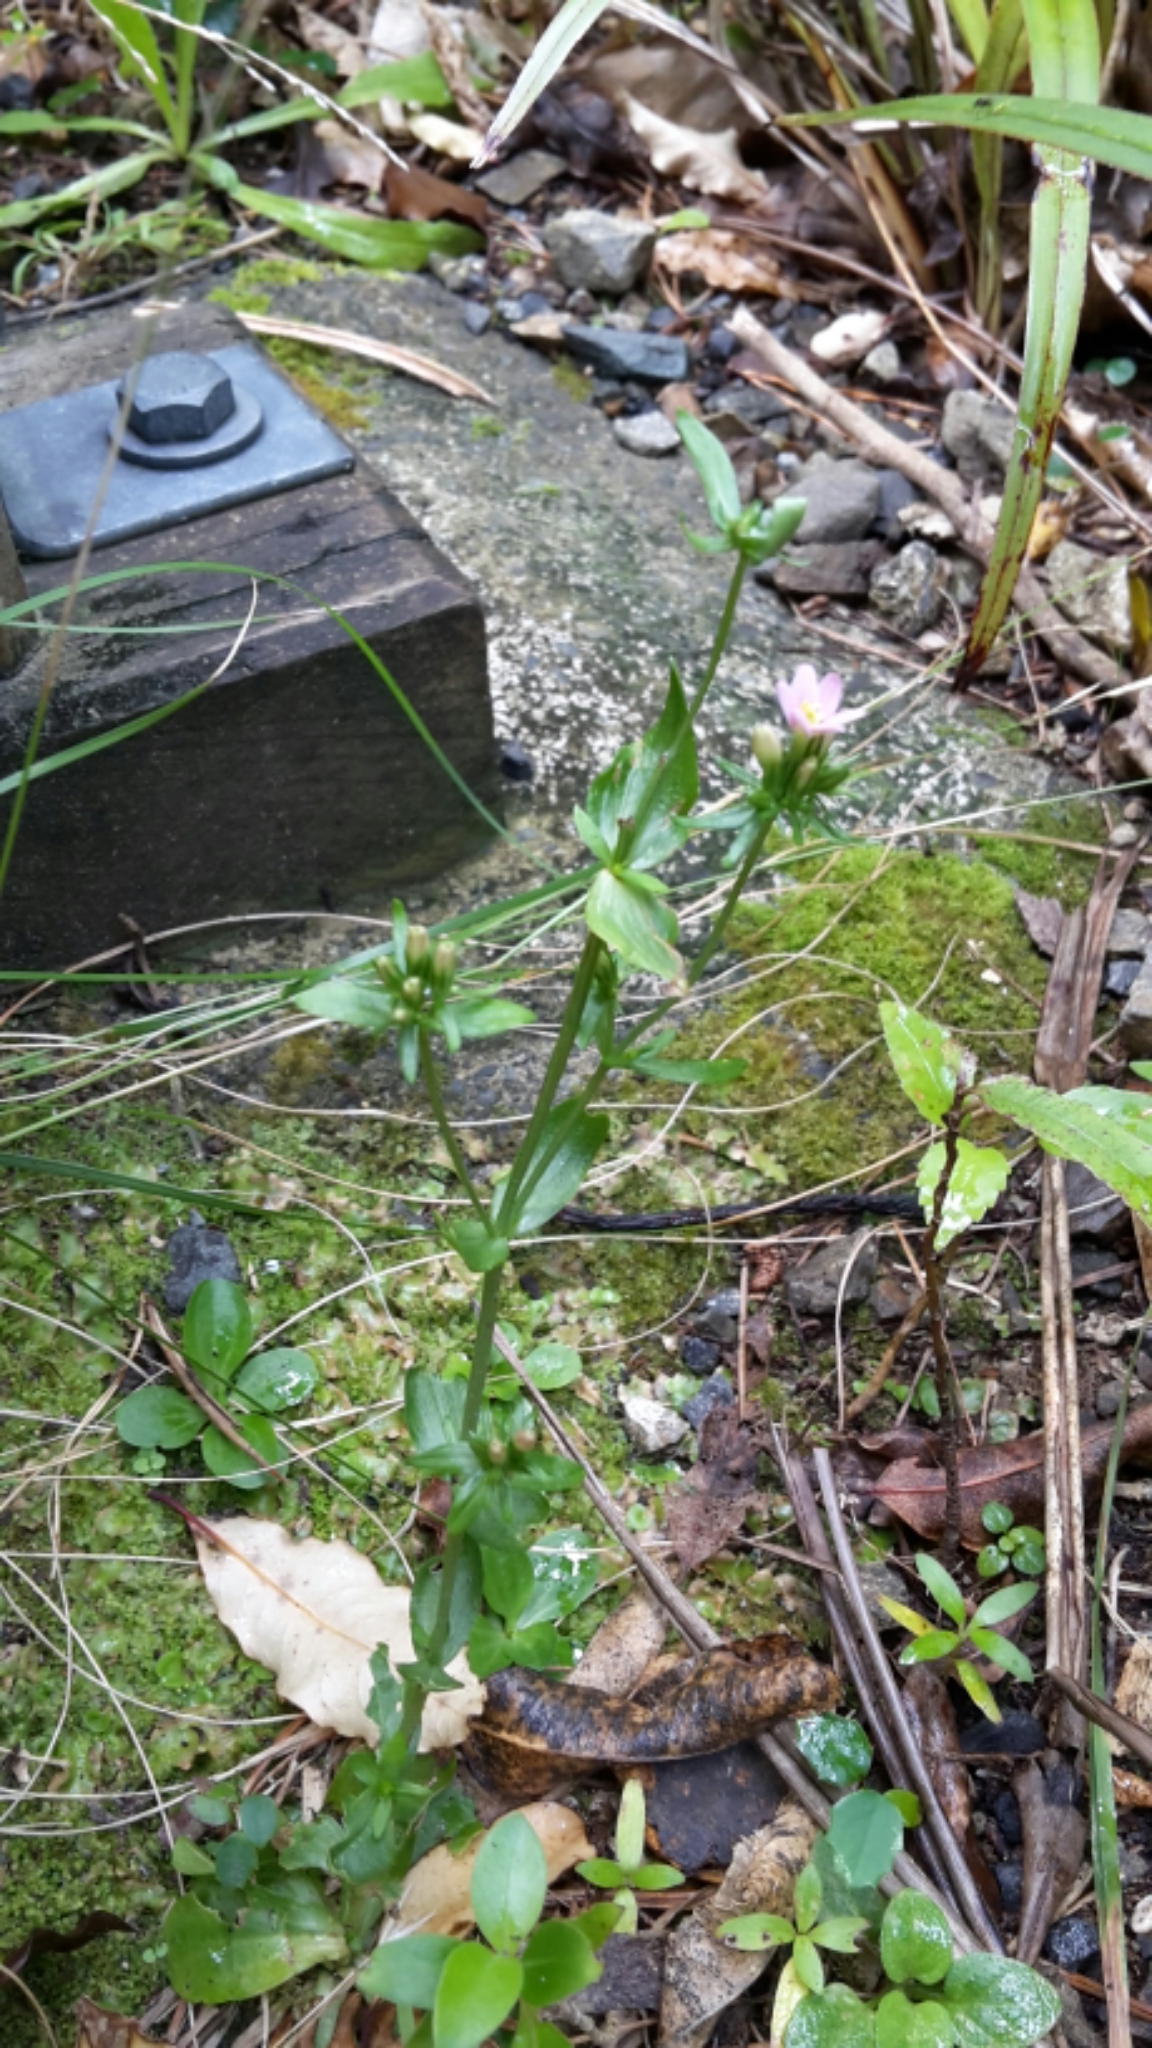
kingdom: Plantae
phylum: Tracheophyta
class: Magnoliopsida
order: Gentianales
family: Gentianaceae
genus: Centaurium
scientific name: Centaurium erythraea
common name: Common centaury
